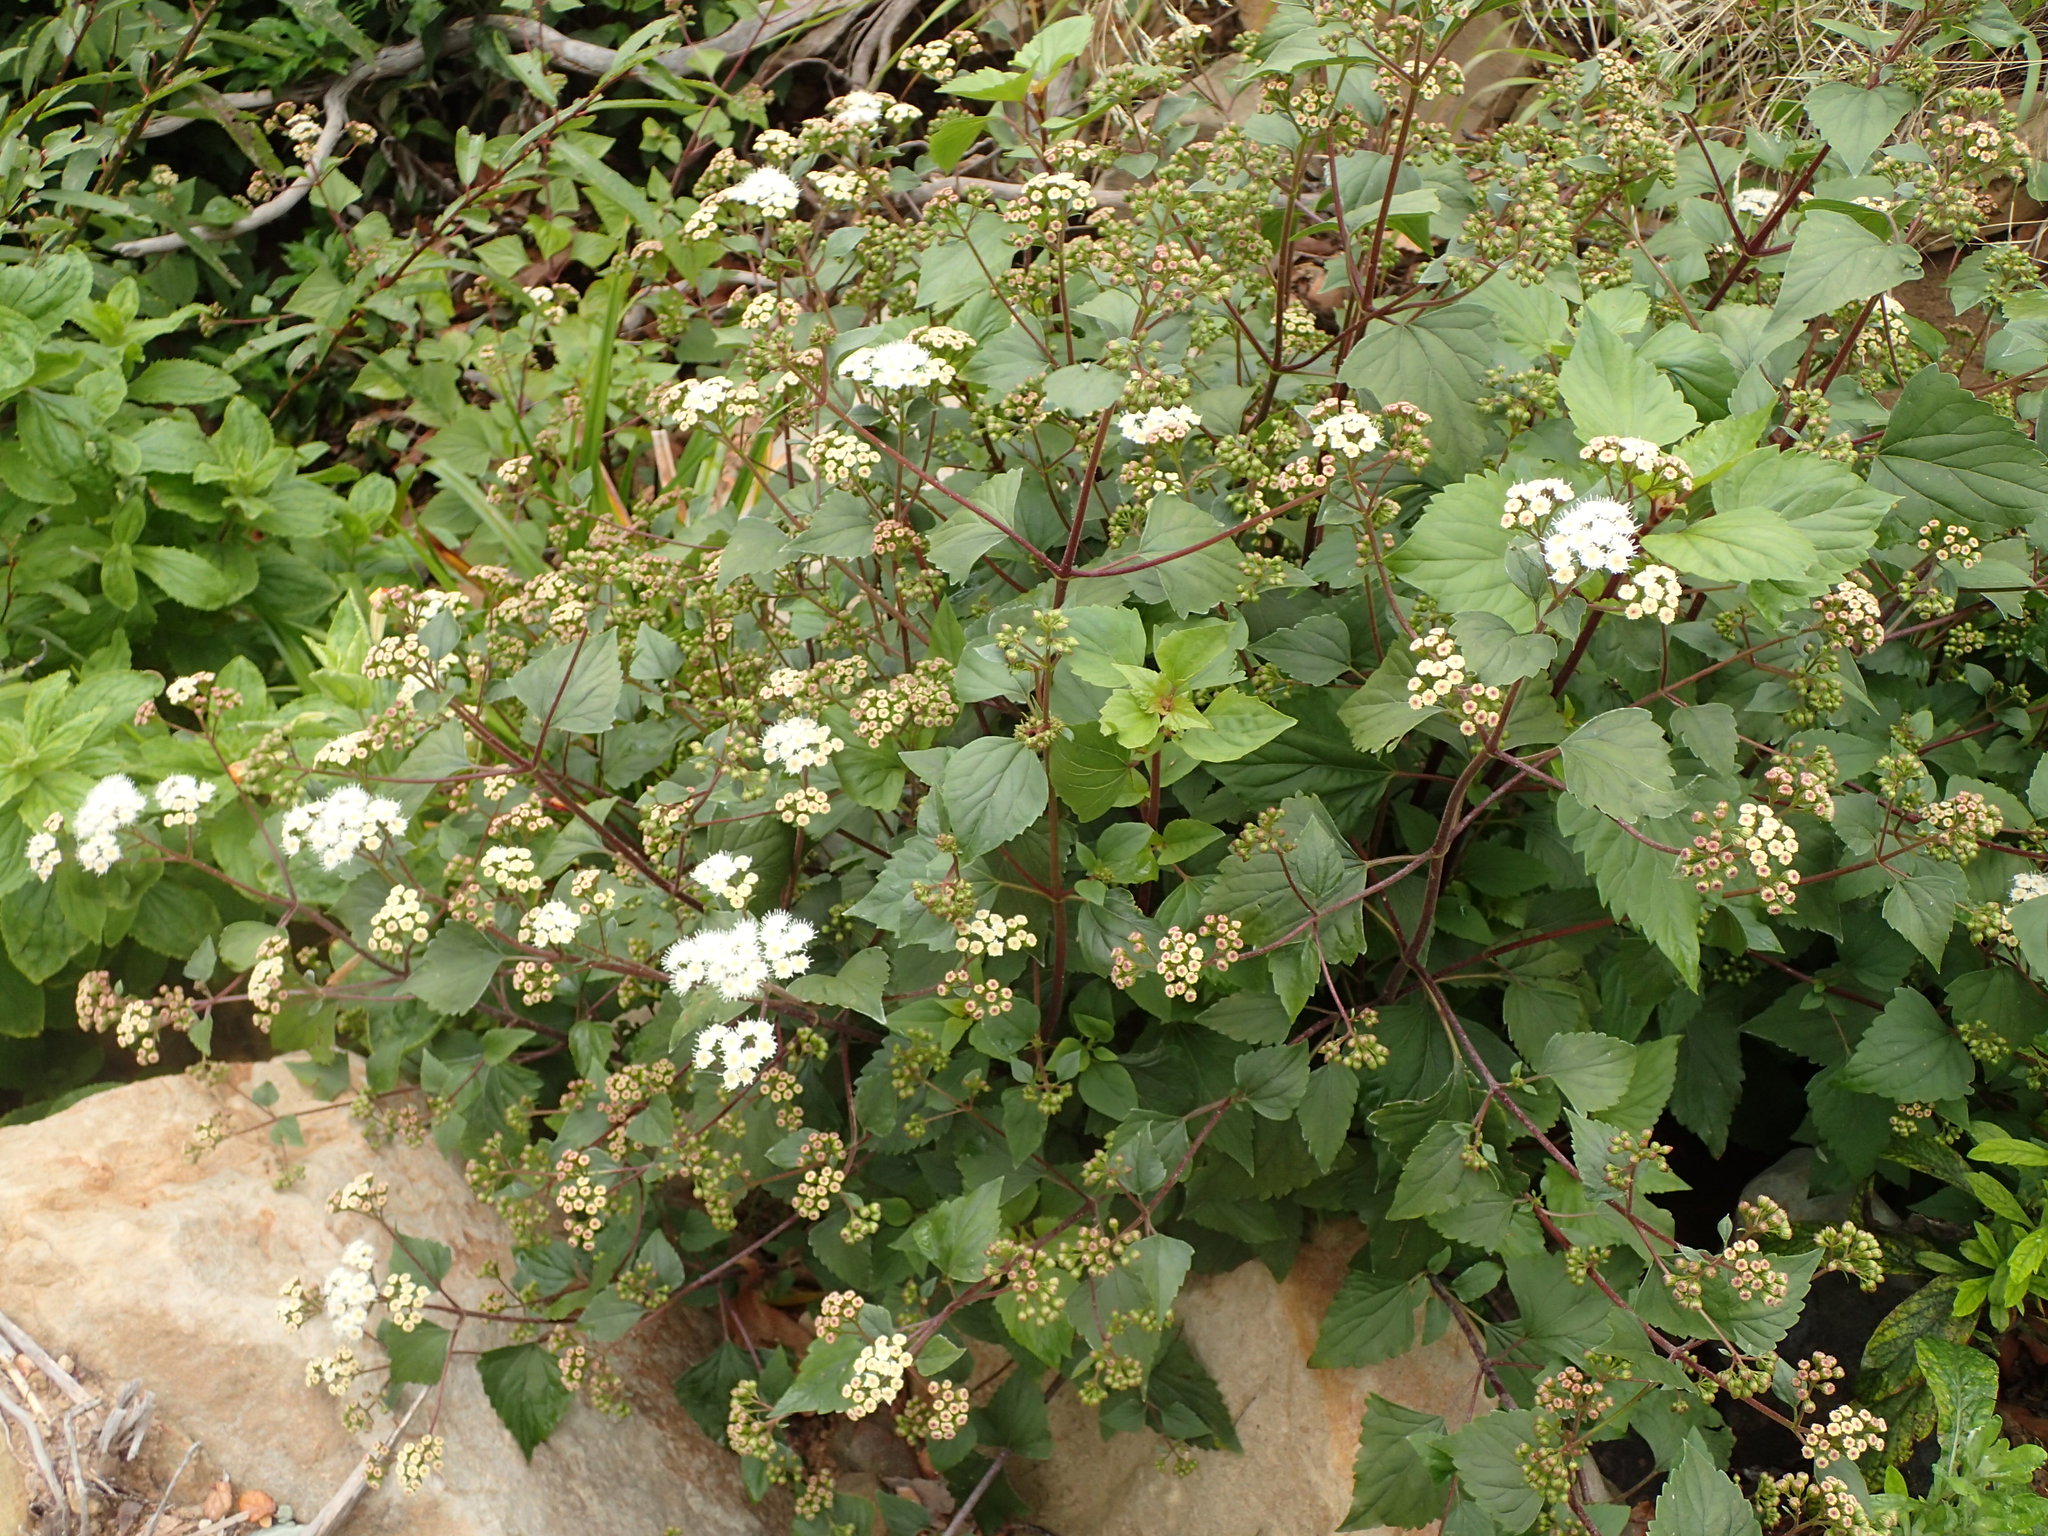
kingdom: Plantae
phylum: Tracheophyta
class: Magnoliopsida
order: Asterales
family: Asteraceae
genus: Ageratina
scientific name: Ageratina adenophora
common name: Sticky snakeroot
